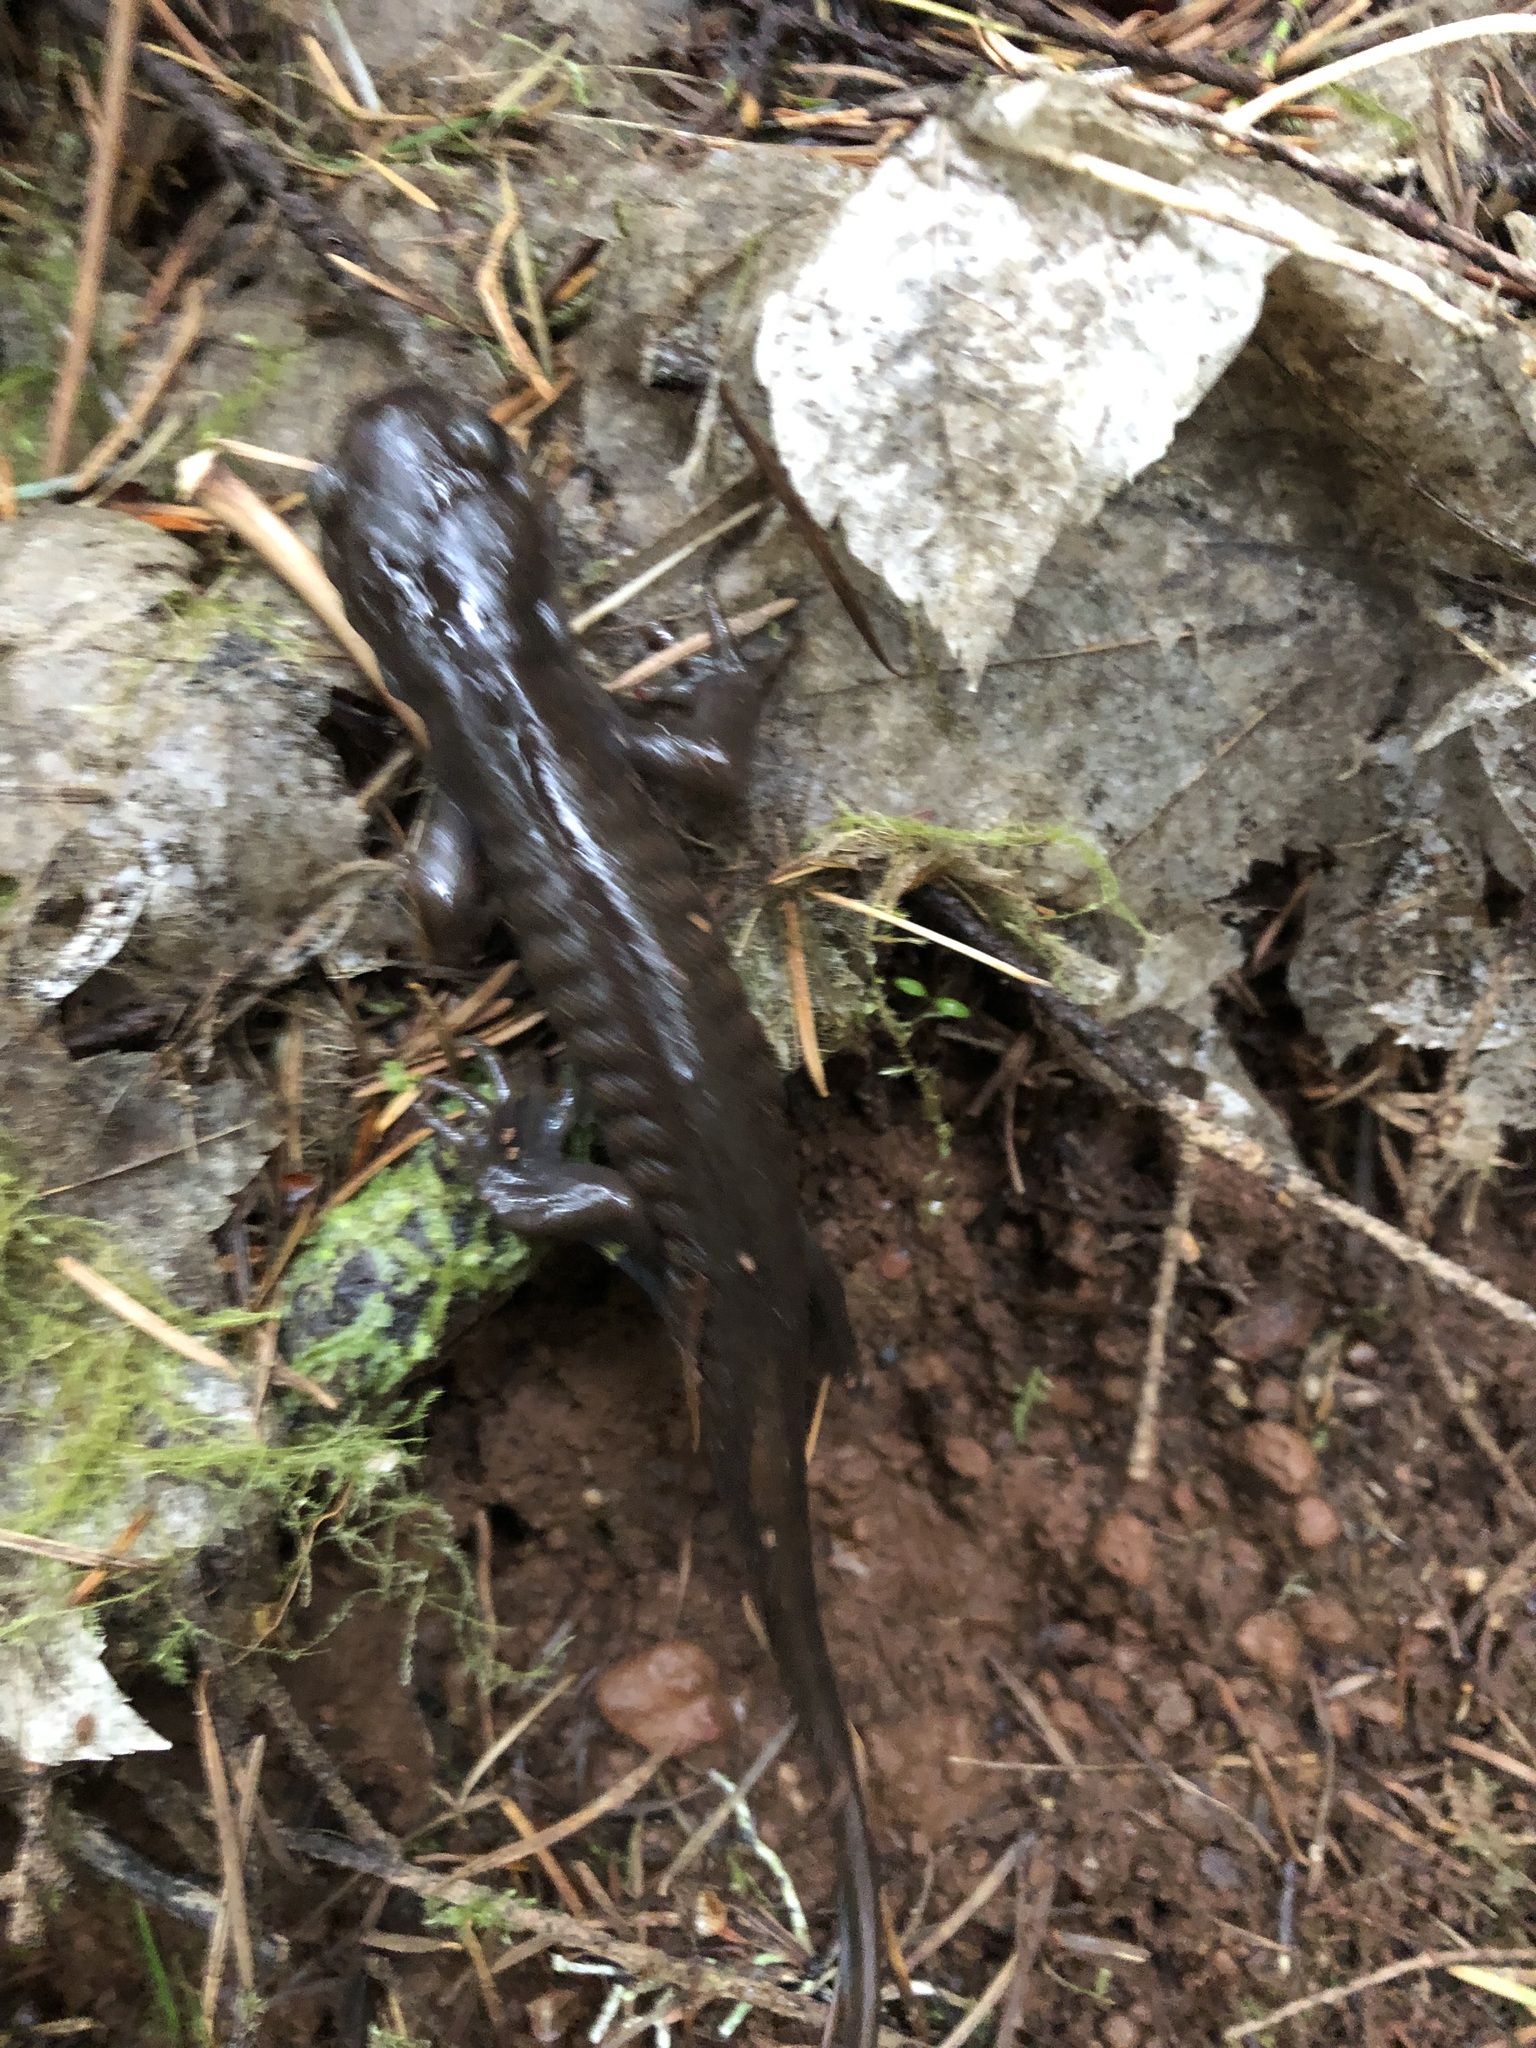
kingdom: Animalia
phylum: Chordata
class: Amphibia
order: Caudata
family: Ambystomatidae
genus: Ambystoma
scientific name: Ambystoma gracile
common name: Northwestern salamander
